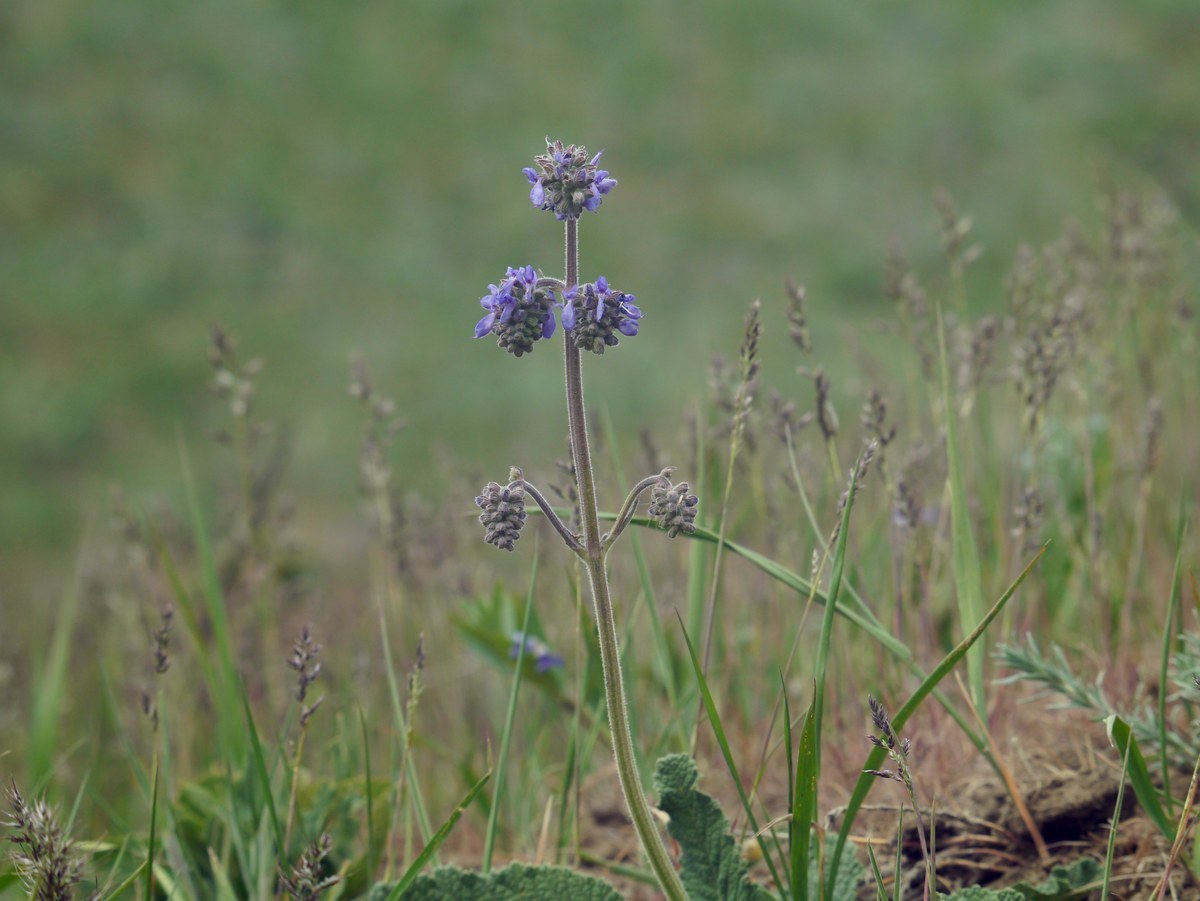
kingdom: Plantae
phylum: Tracheophyta
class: Magnoliopsida
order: Lamiales
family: Lamiaceae
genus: Salvia
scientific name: Salvia nutans
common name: Nodding sage
